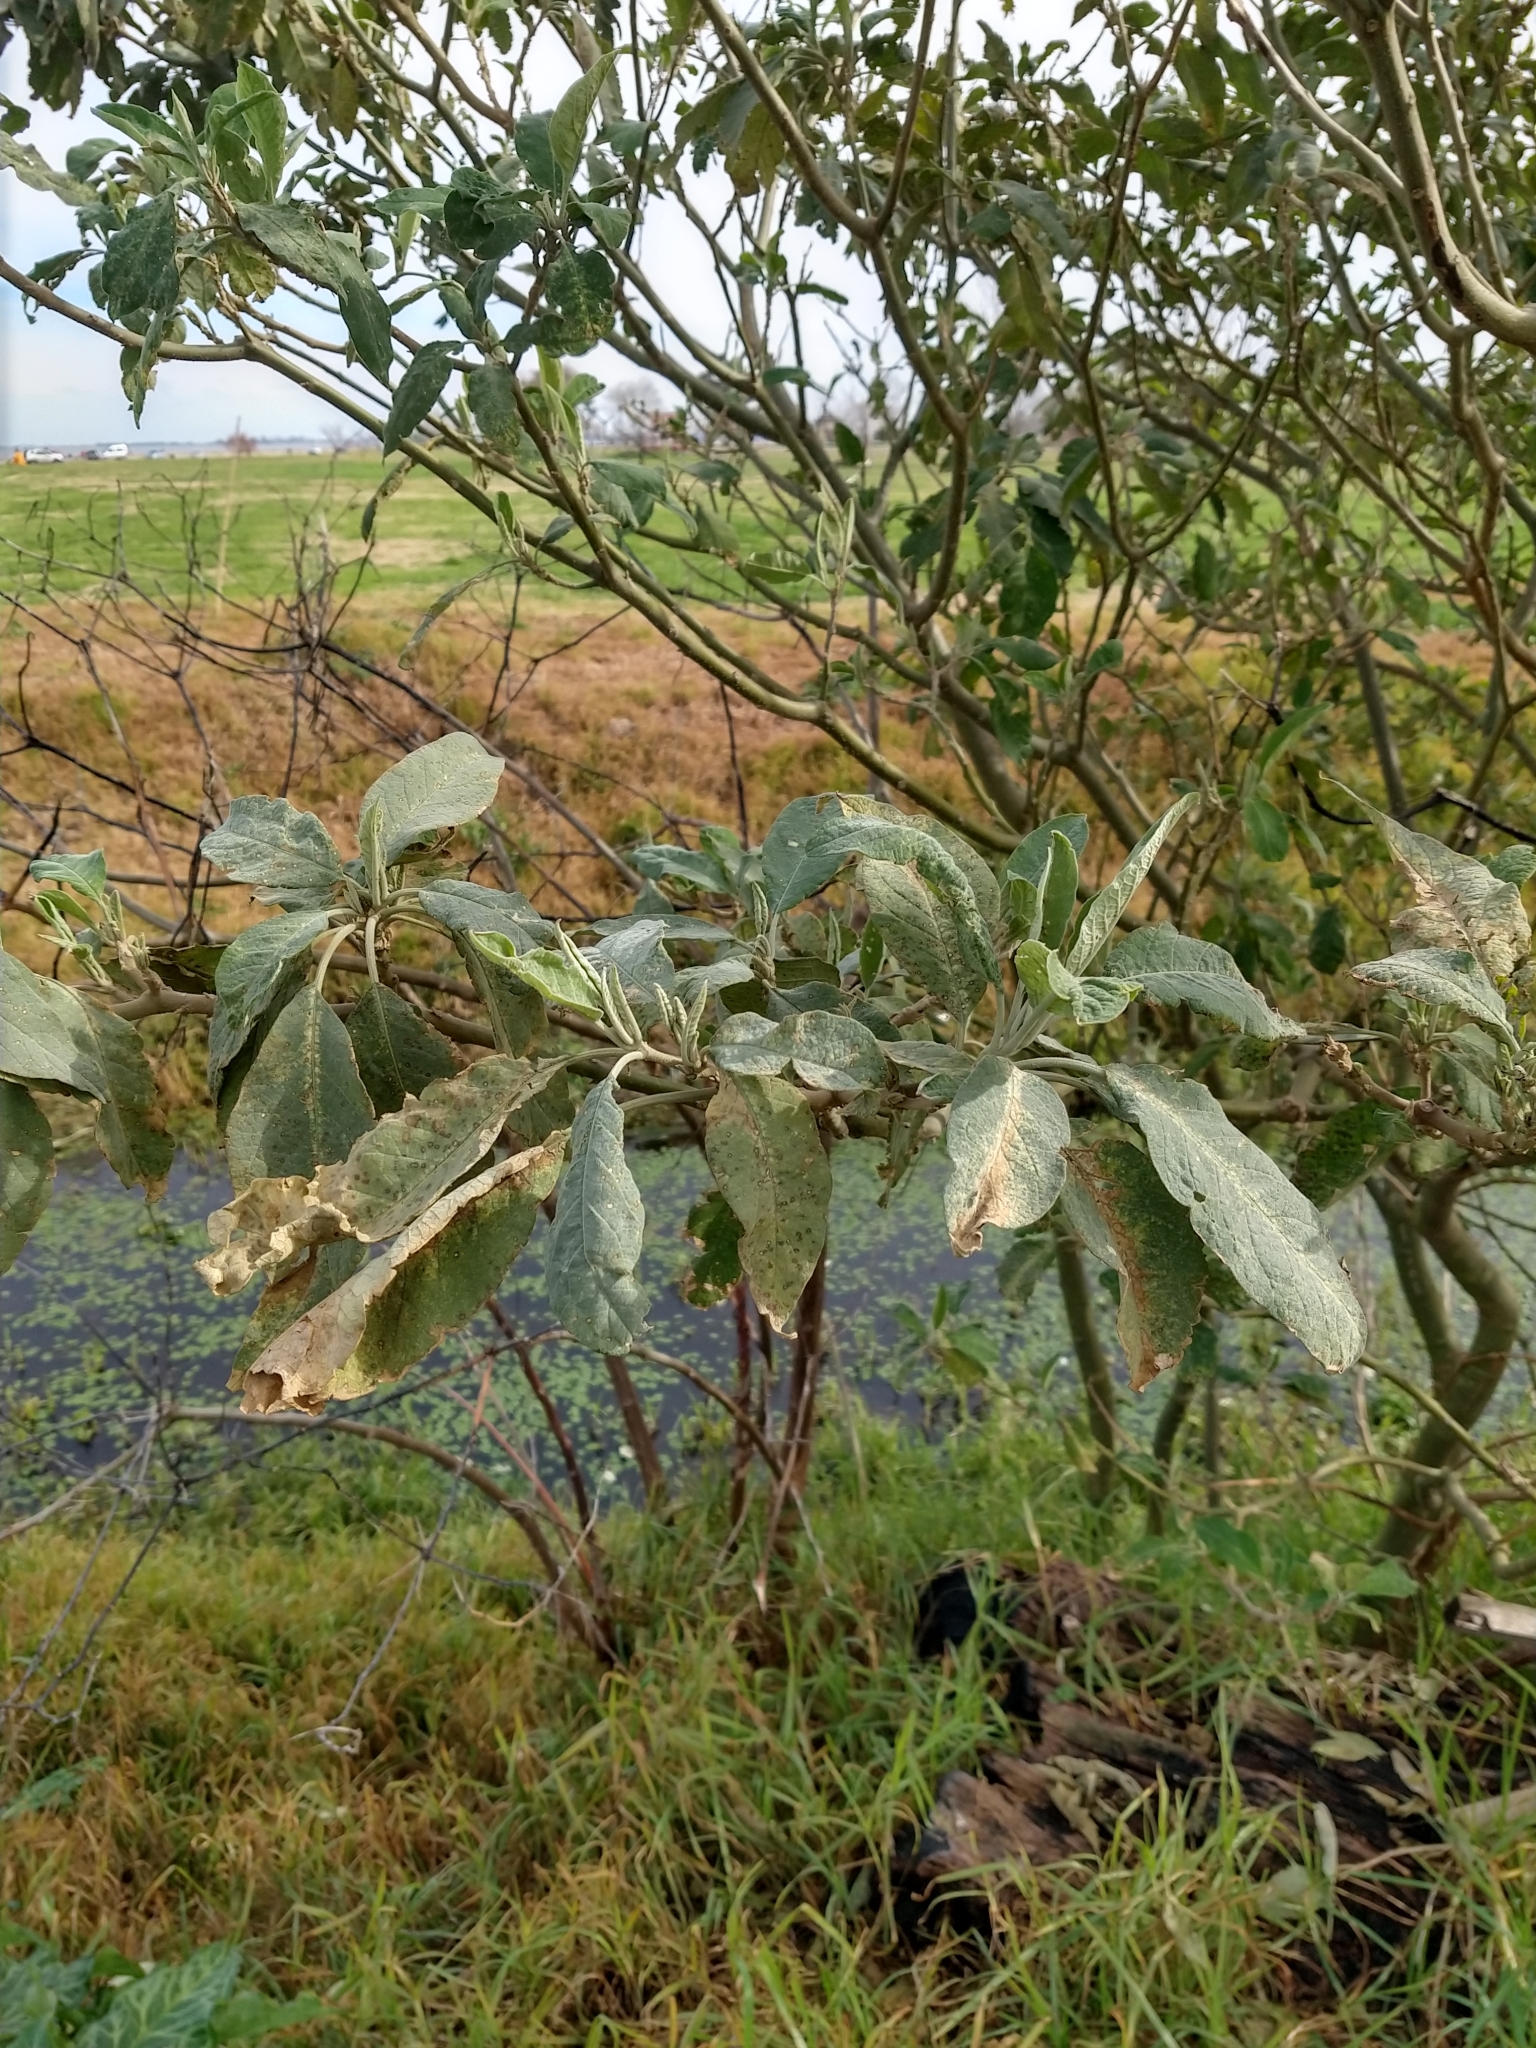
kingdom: Plantae
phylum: Tracheophyta
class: Magnoliopsida
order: Solanales
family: Solanaceae
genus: Solanum
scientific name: Solanum granulosoleprosum
